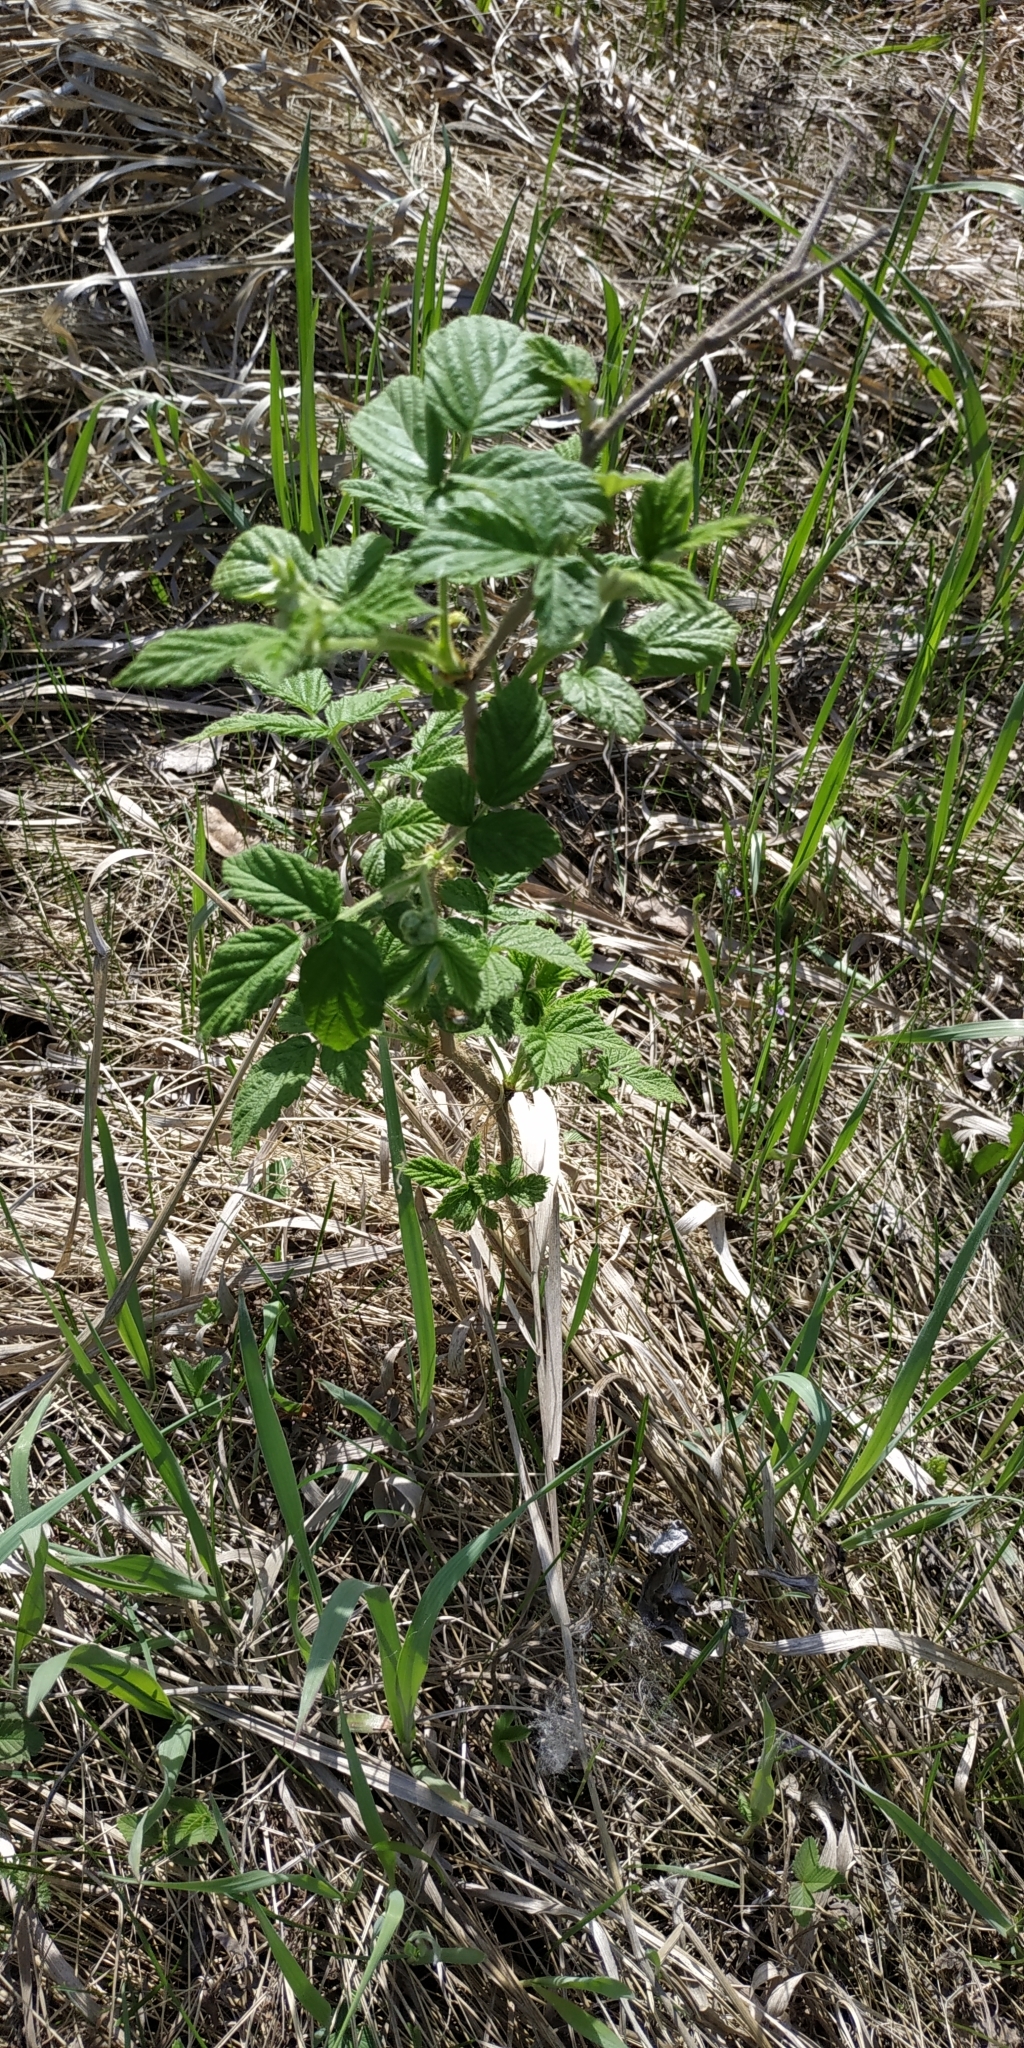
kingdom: Plantae
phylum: Tracheophyta
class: Magnoliopsida
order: Rosales
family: Rosaceae
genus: Rubus
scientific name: Rubus idaeus
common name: Raspberry
